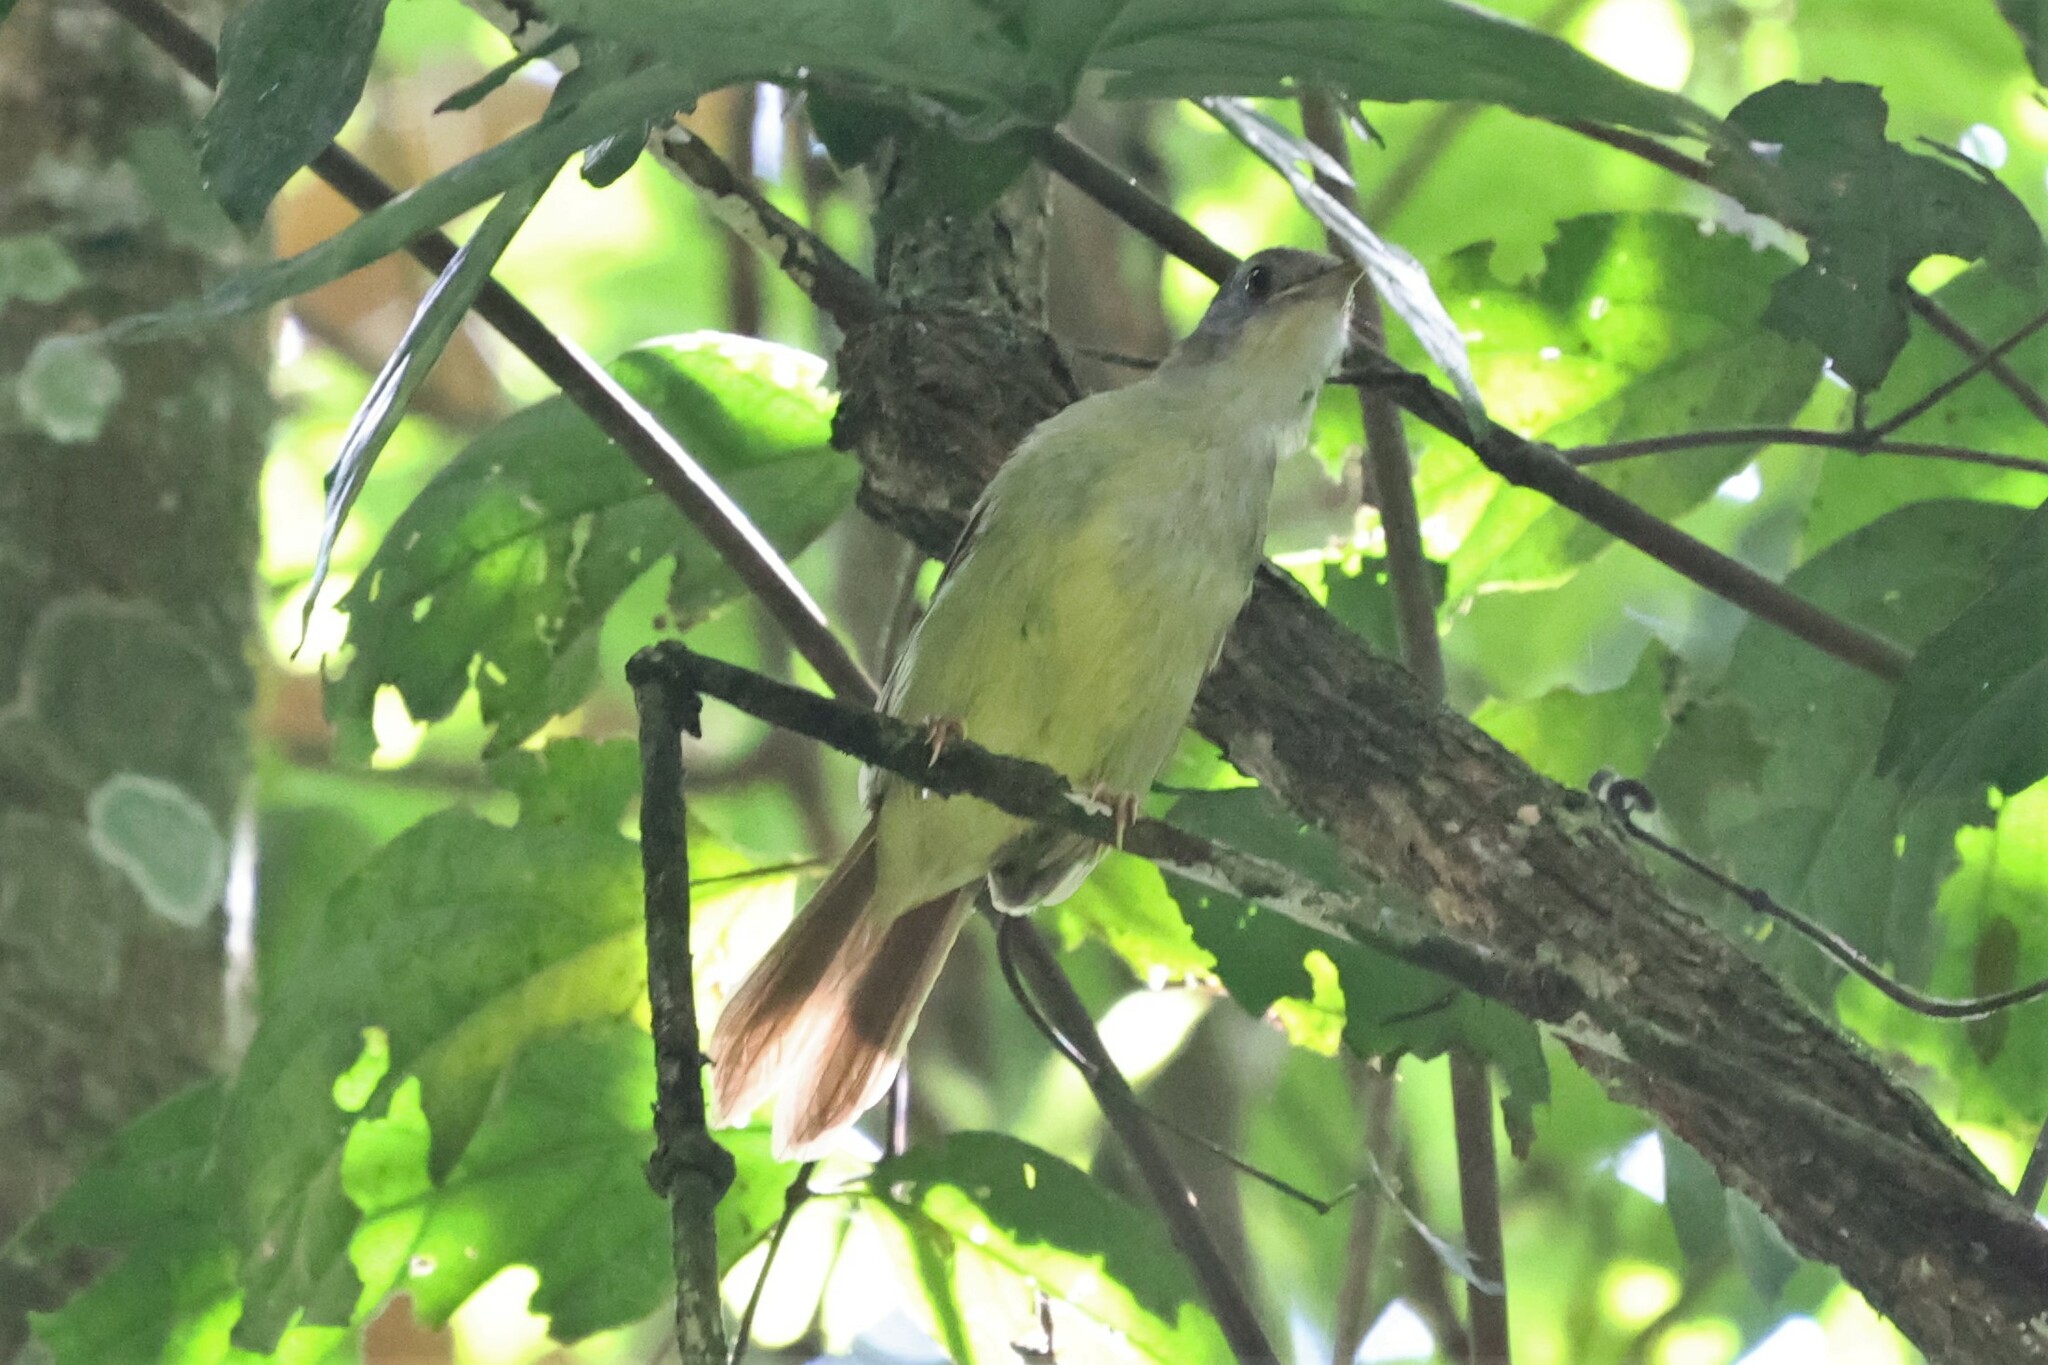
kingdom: Animalia
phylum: Chordata
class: Aves
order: Passeriformes
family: Pycnonotidae
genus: Phyllastrephus
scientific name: Phyllastrephus albigularis
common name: White-throated greenbul
